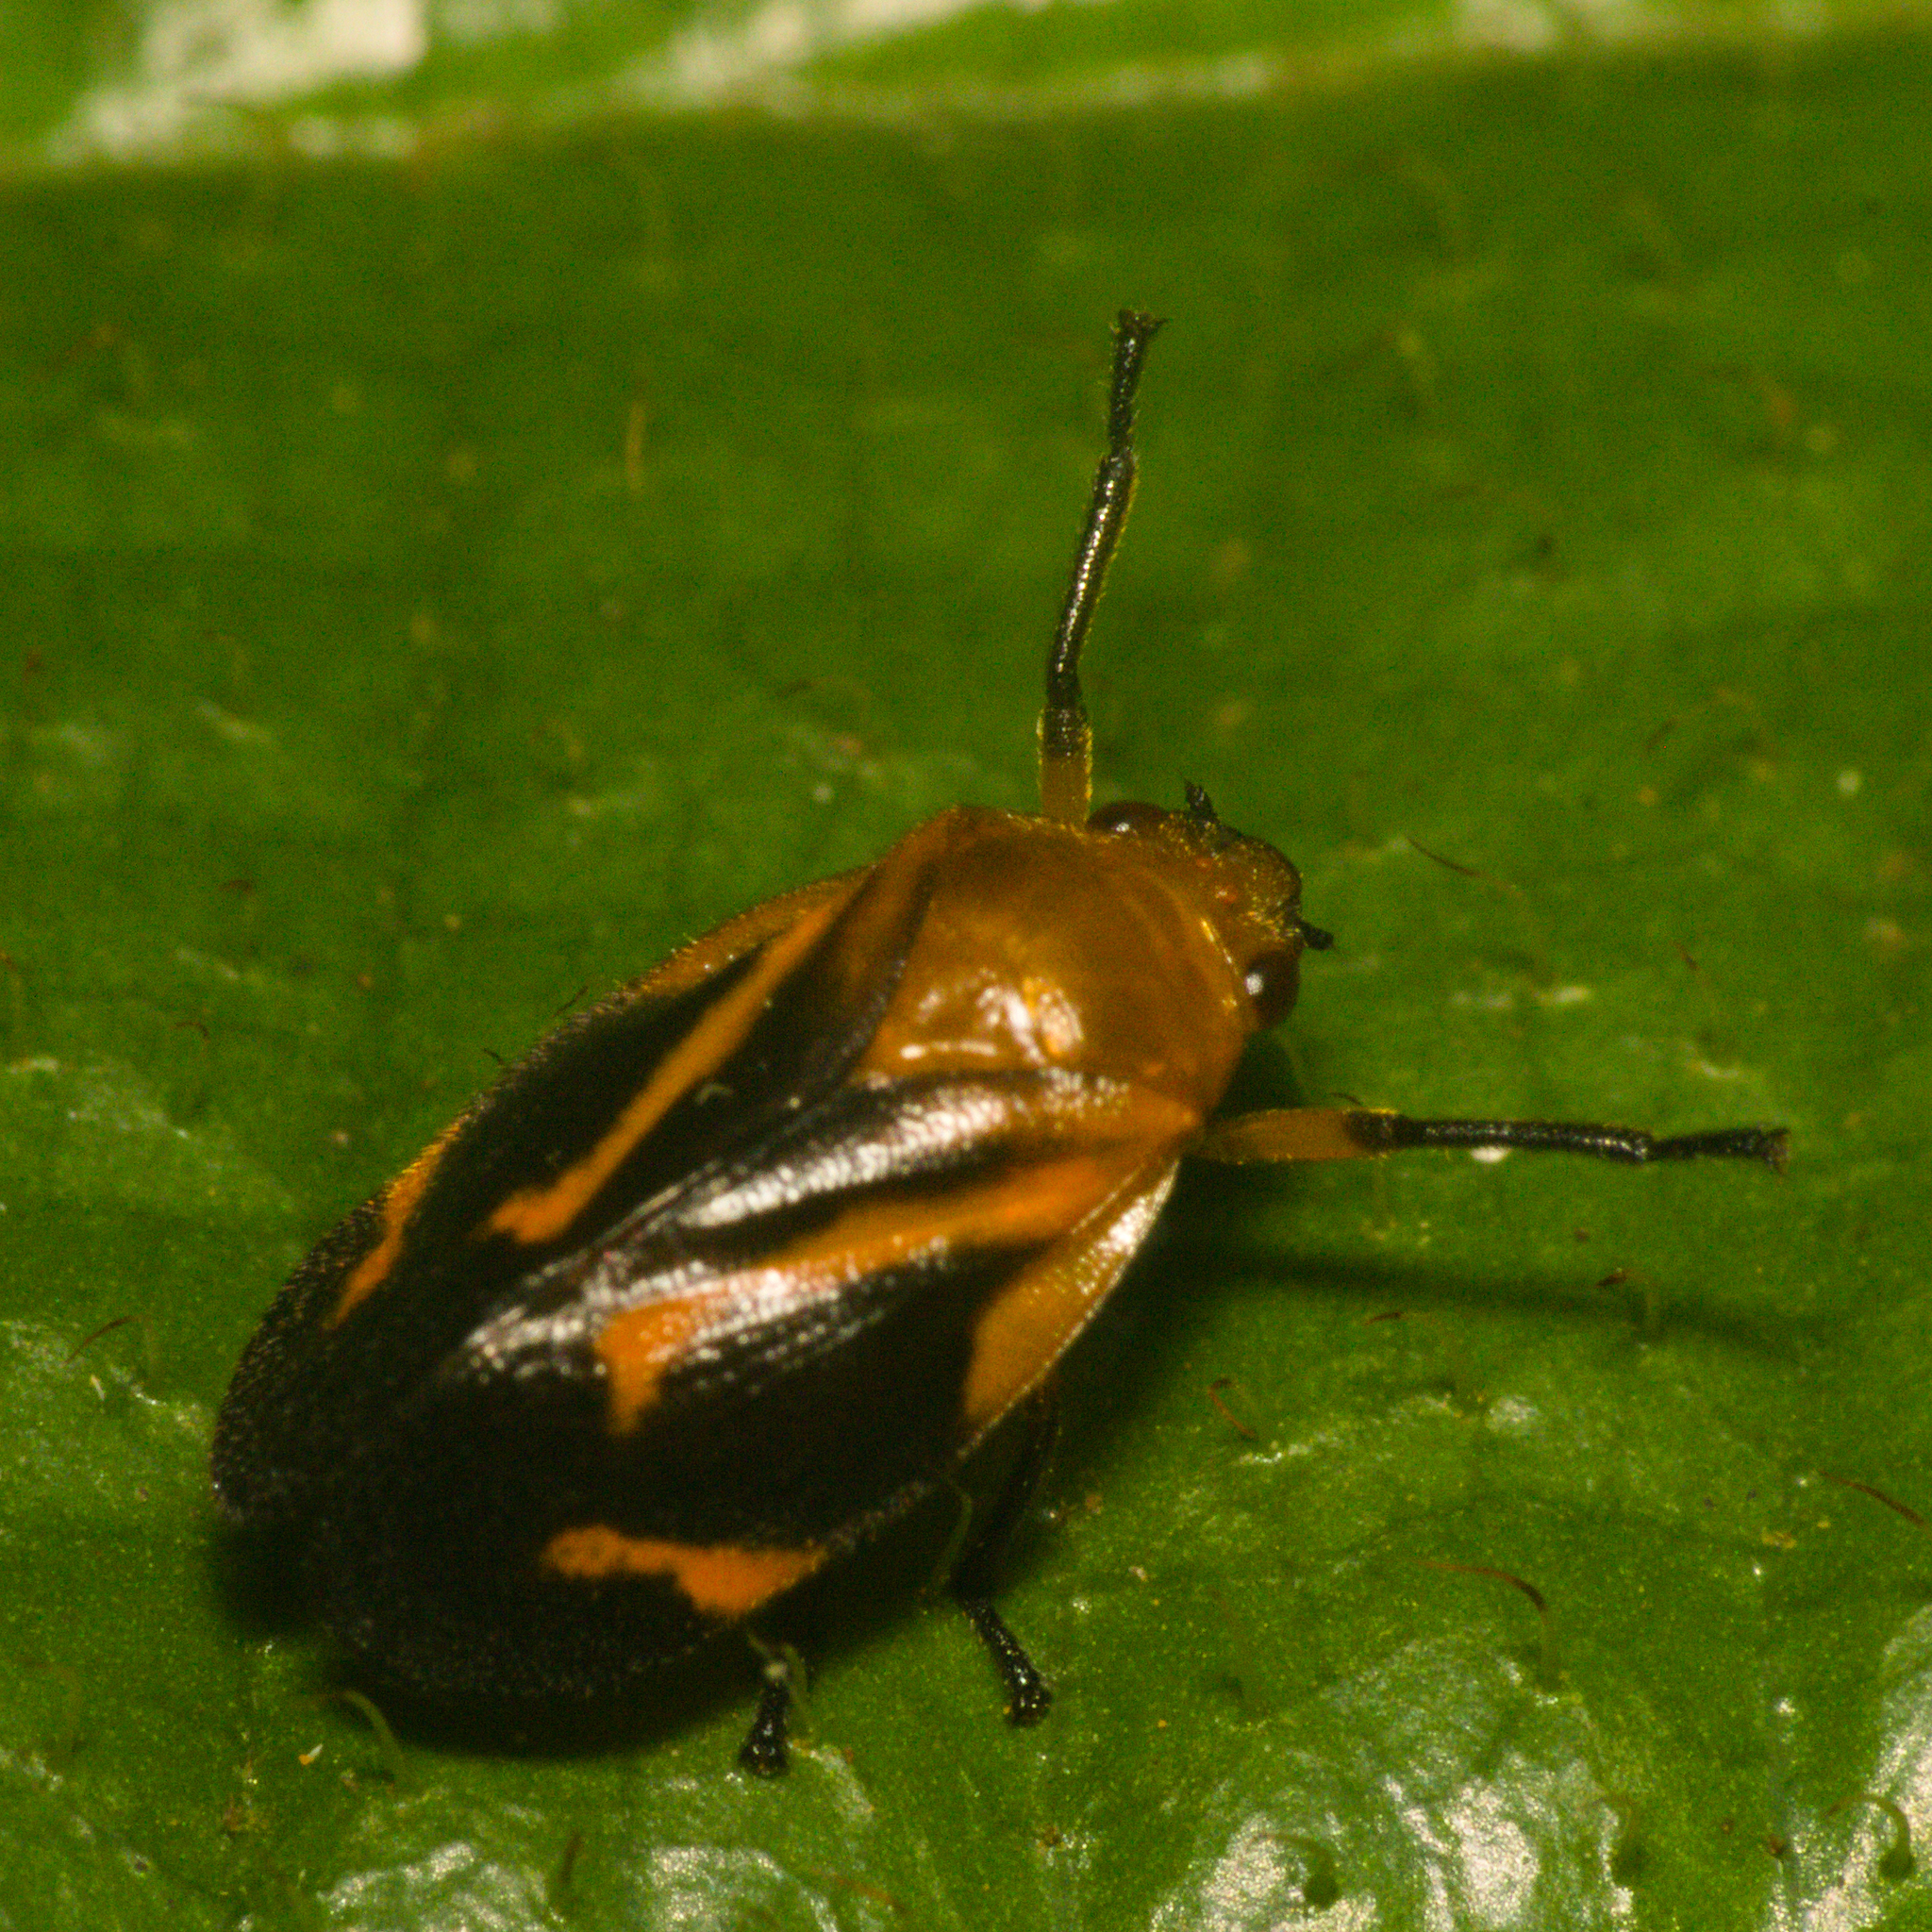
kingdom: Animalia
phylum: Arthropoda
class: Insecta
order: Hemiptera
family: Cercopidae
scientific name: Cercopidae
